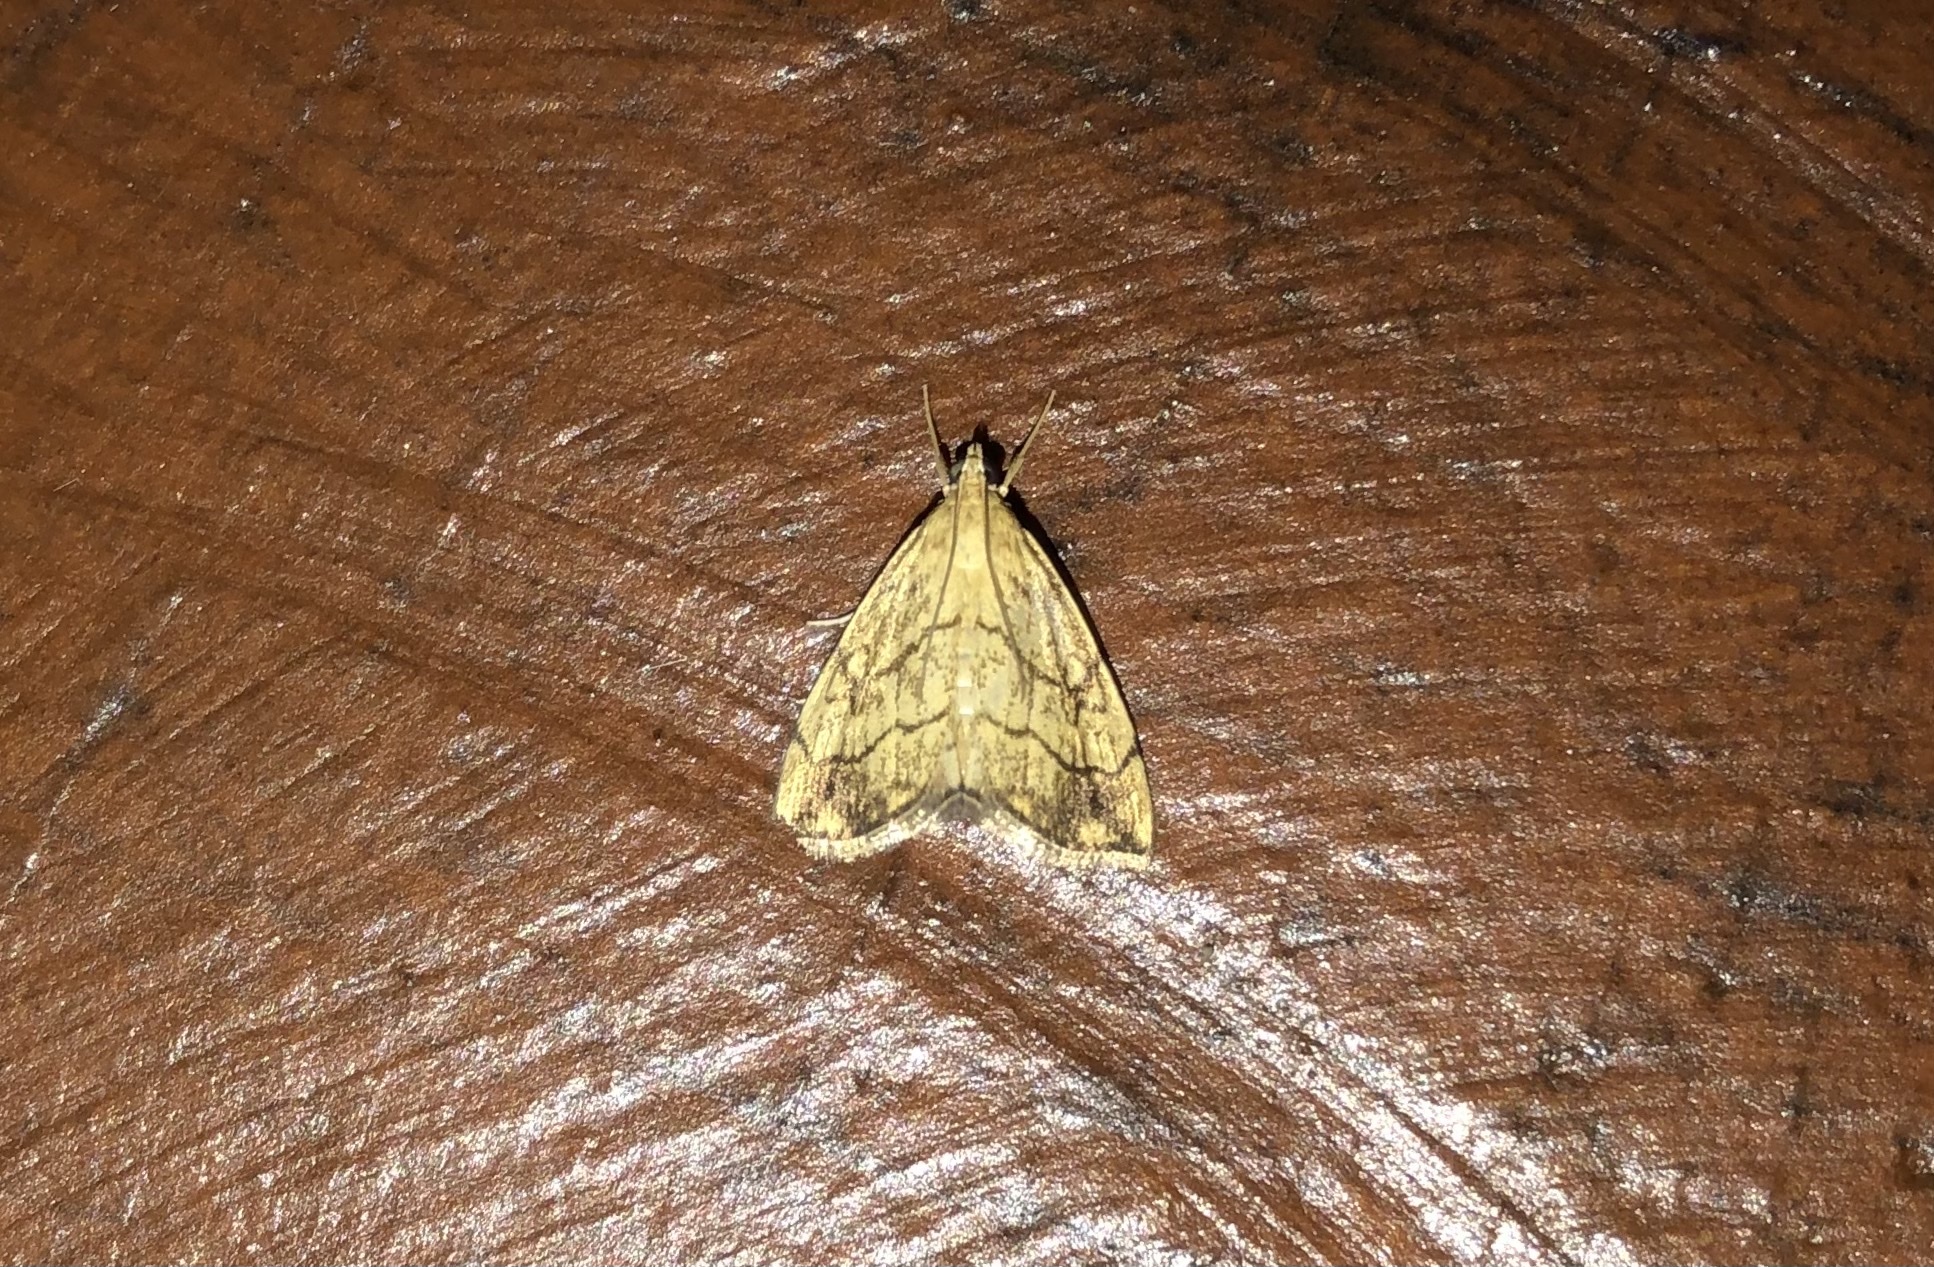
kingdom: Animalia
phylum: Arthropoda
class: Insecta
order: Lepidoptera
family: Crambidae
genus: Evergestis
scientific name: Evergestis pallidata
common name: Chequered pearl
